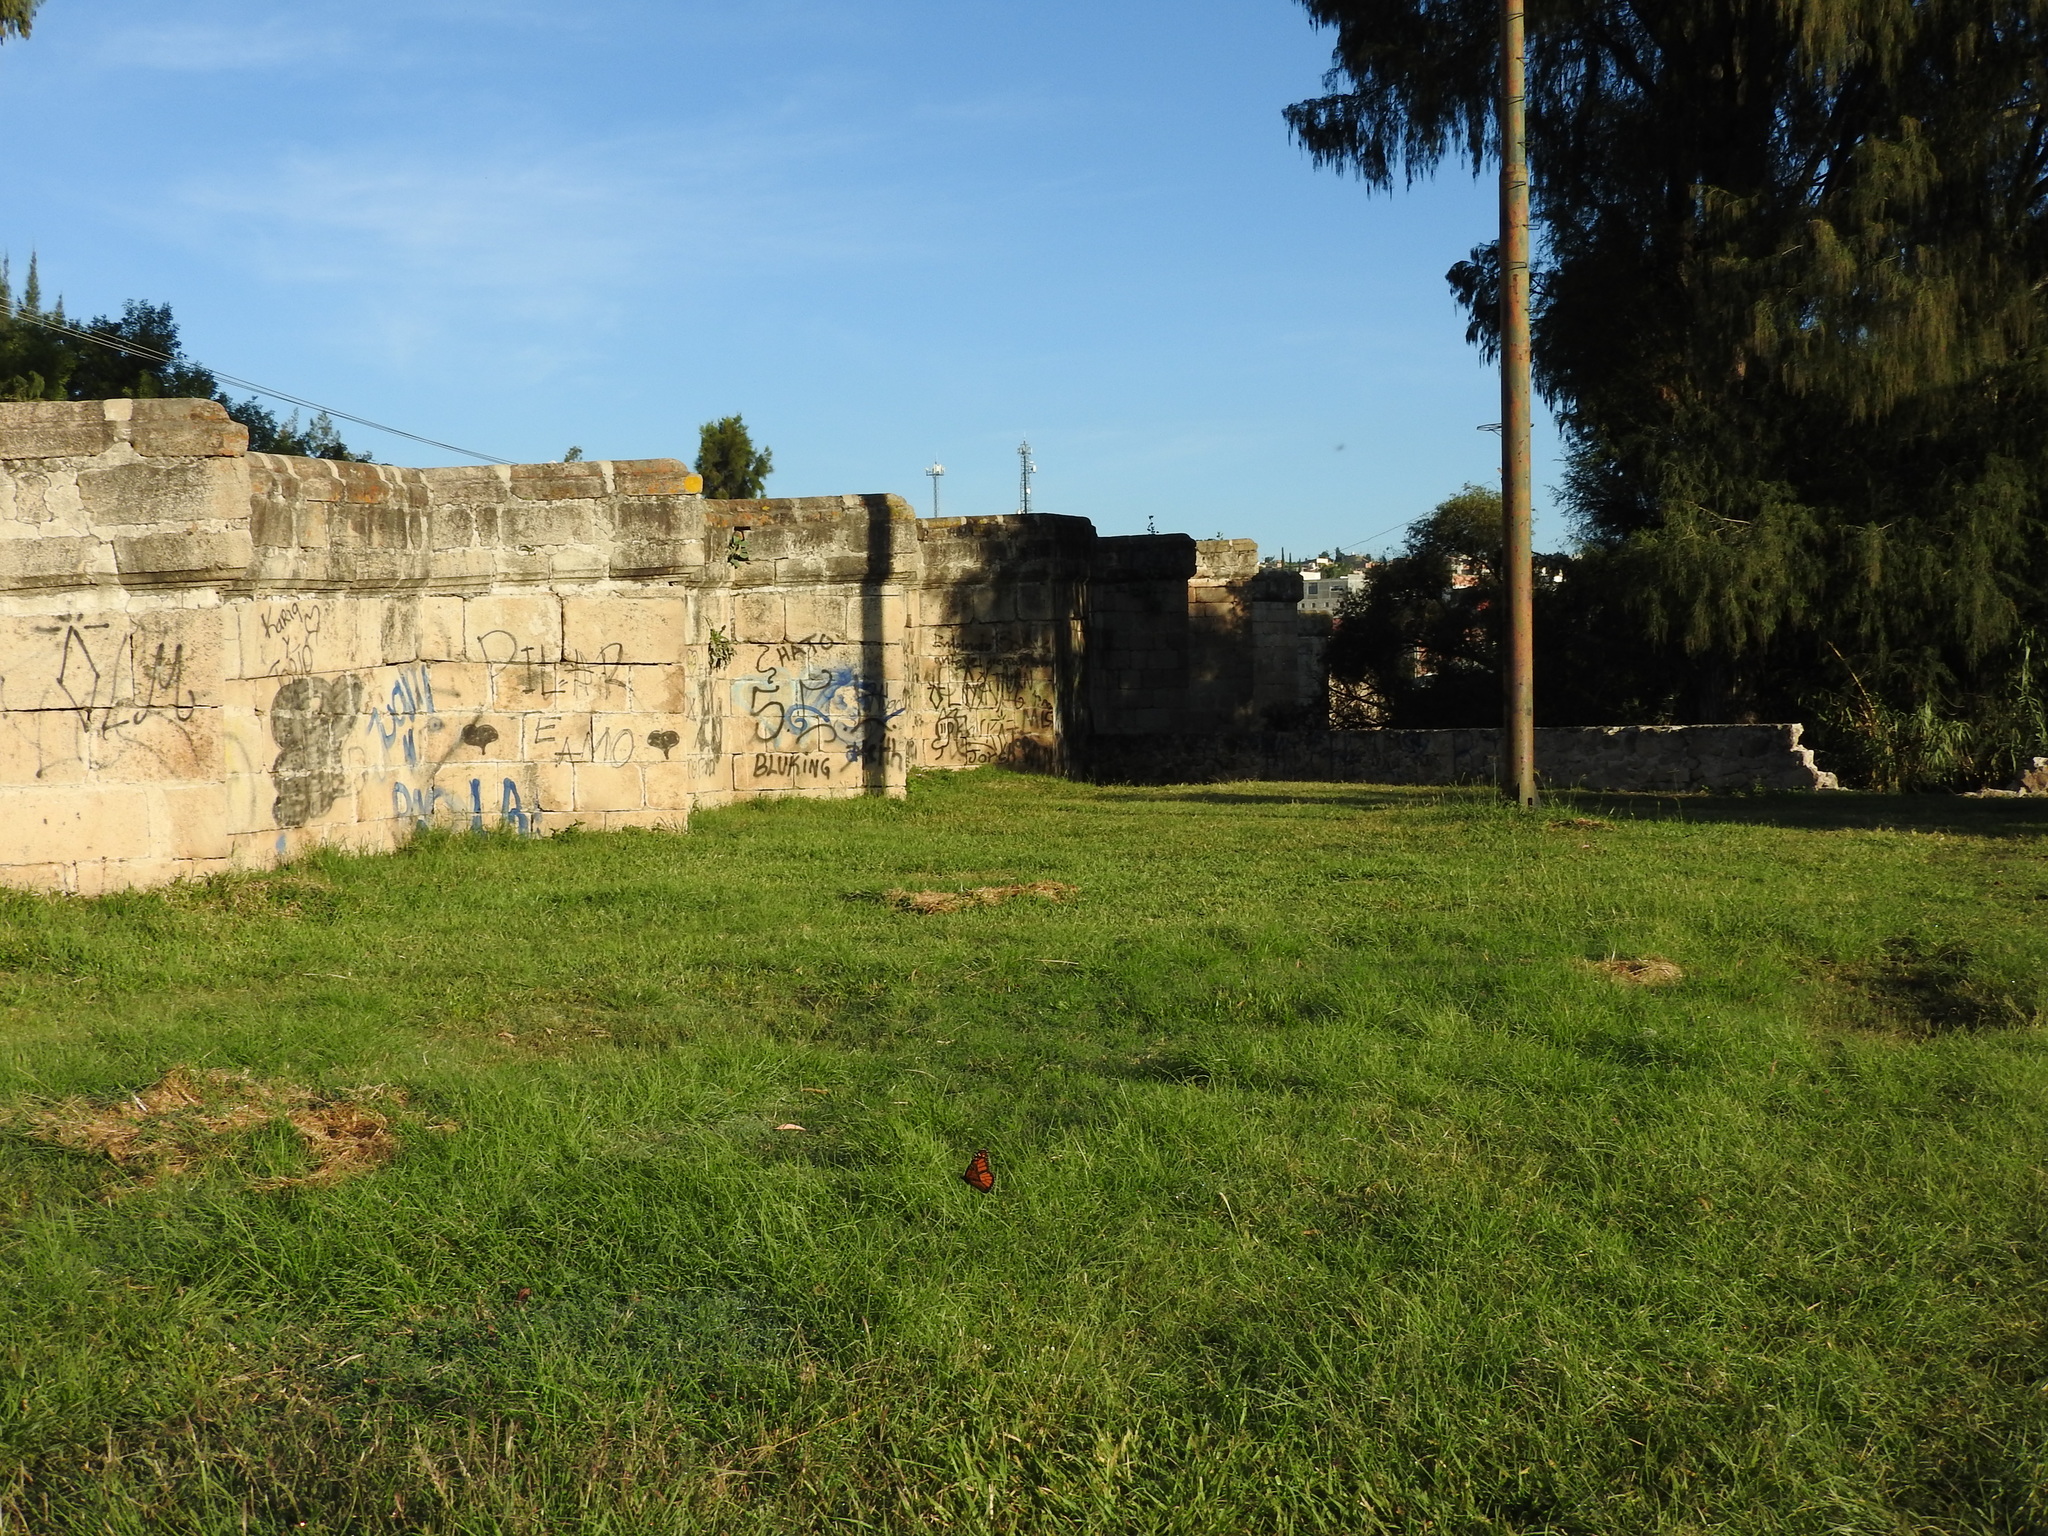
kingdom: Animalia
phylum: Arthropoda
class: Insecta
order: Lepidoptera
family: Nymphalidae
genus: Danaus
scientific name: Danaus plexippus
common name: Monarch
